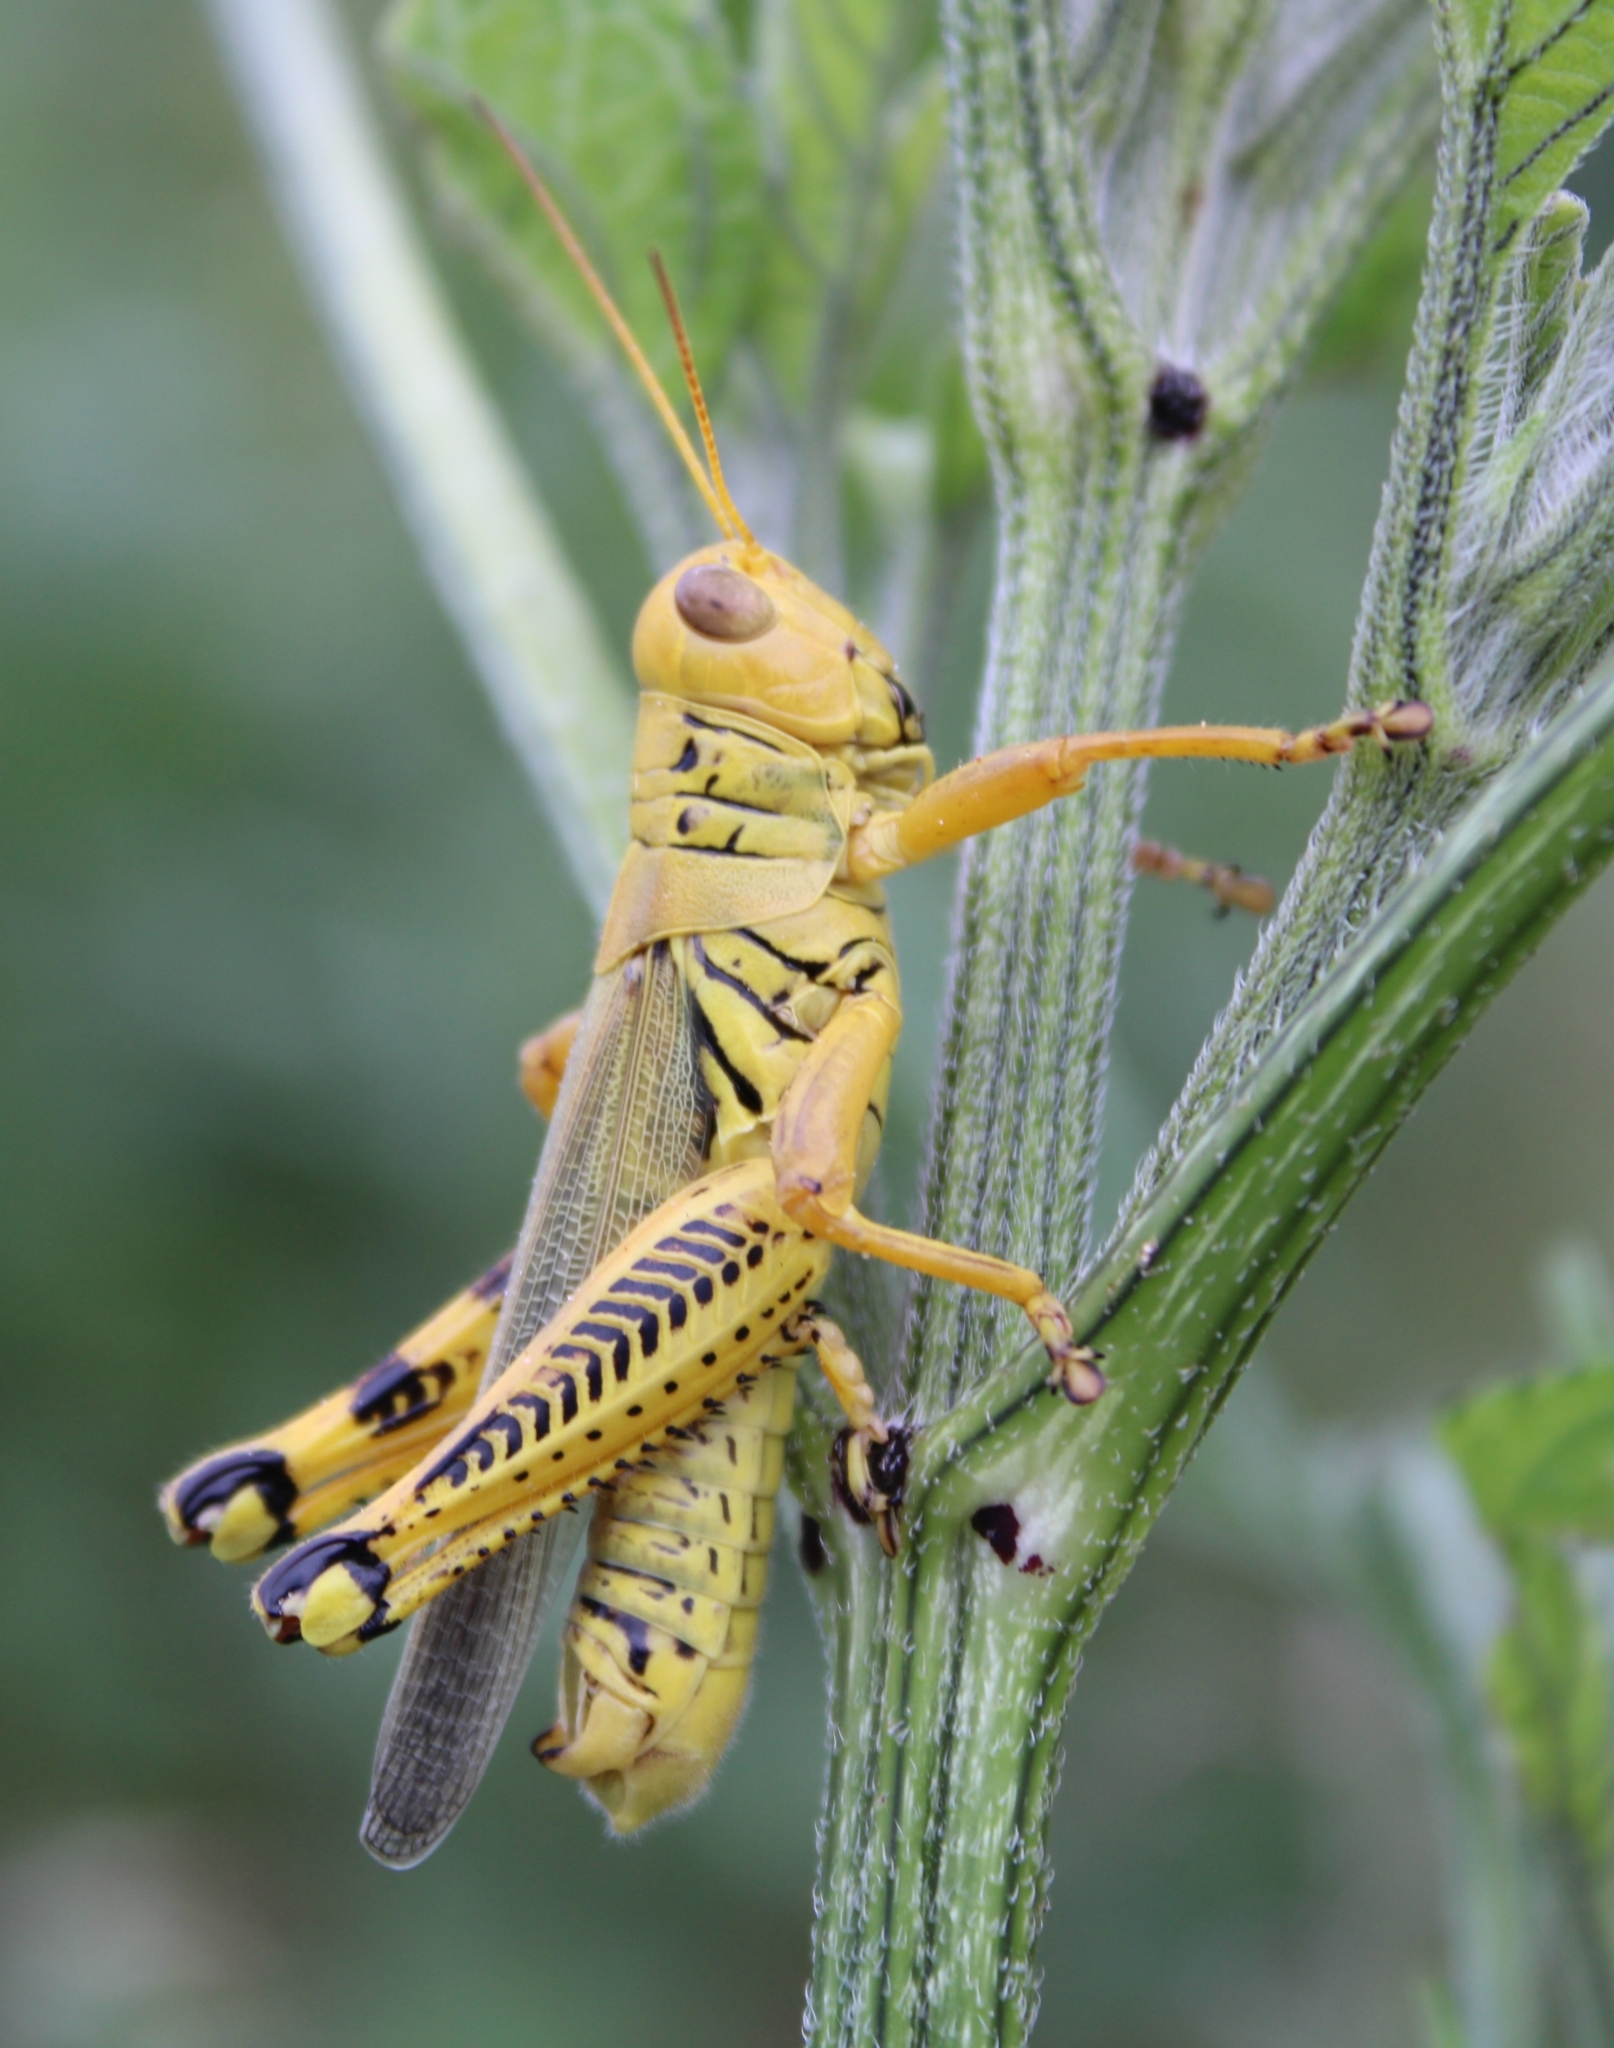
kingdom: Animalia
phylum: Arthropoda
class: Insecta
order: Orthoptera
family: Acrididae
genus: Melanoplus
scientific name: Melanoplus differentialis
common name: Differential grasshopper
